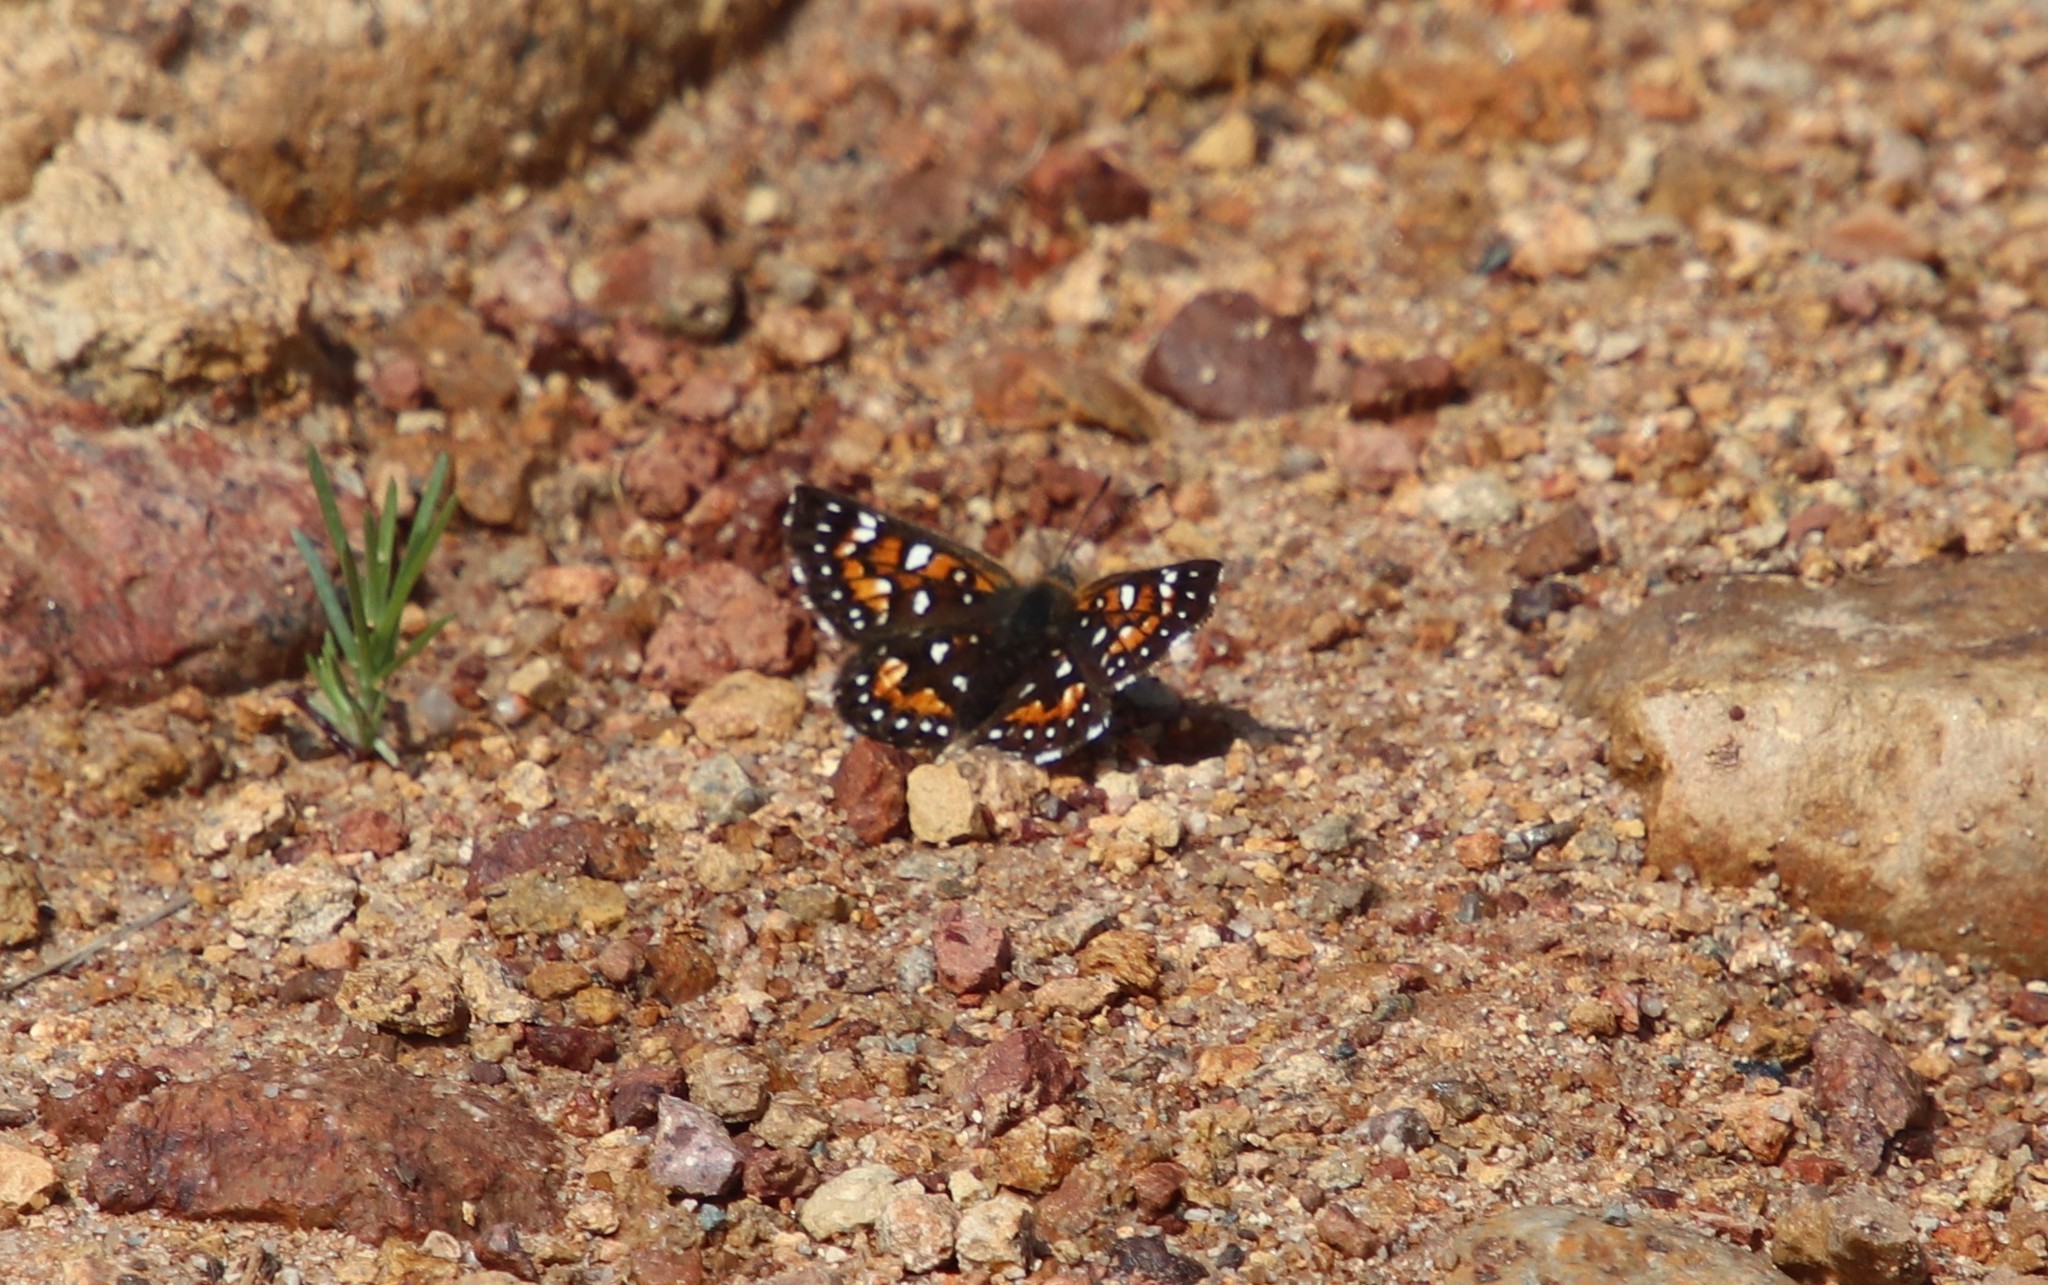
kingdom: Animalia
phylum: Arthropoda
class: Insecta
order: Lepidoptera
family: Riodinidae
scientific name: Riodinidae
